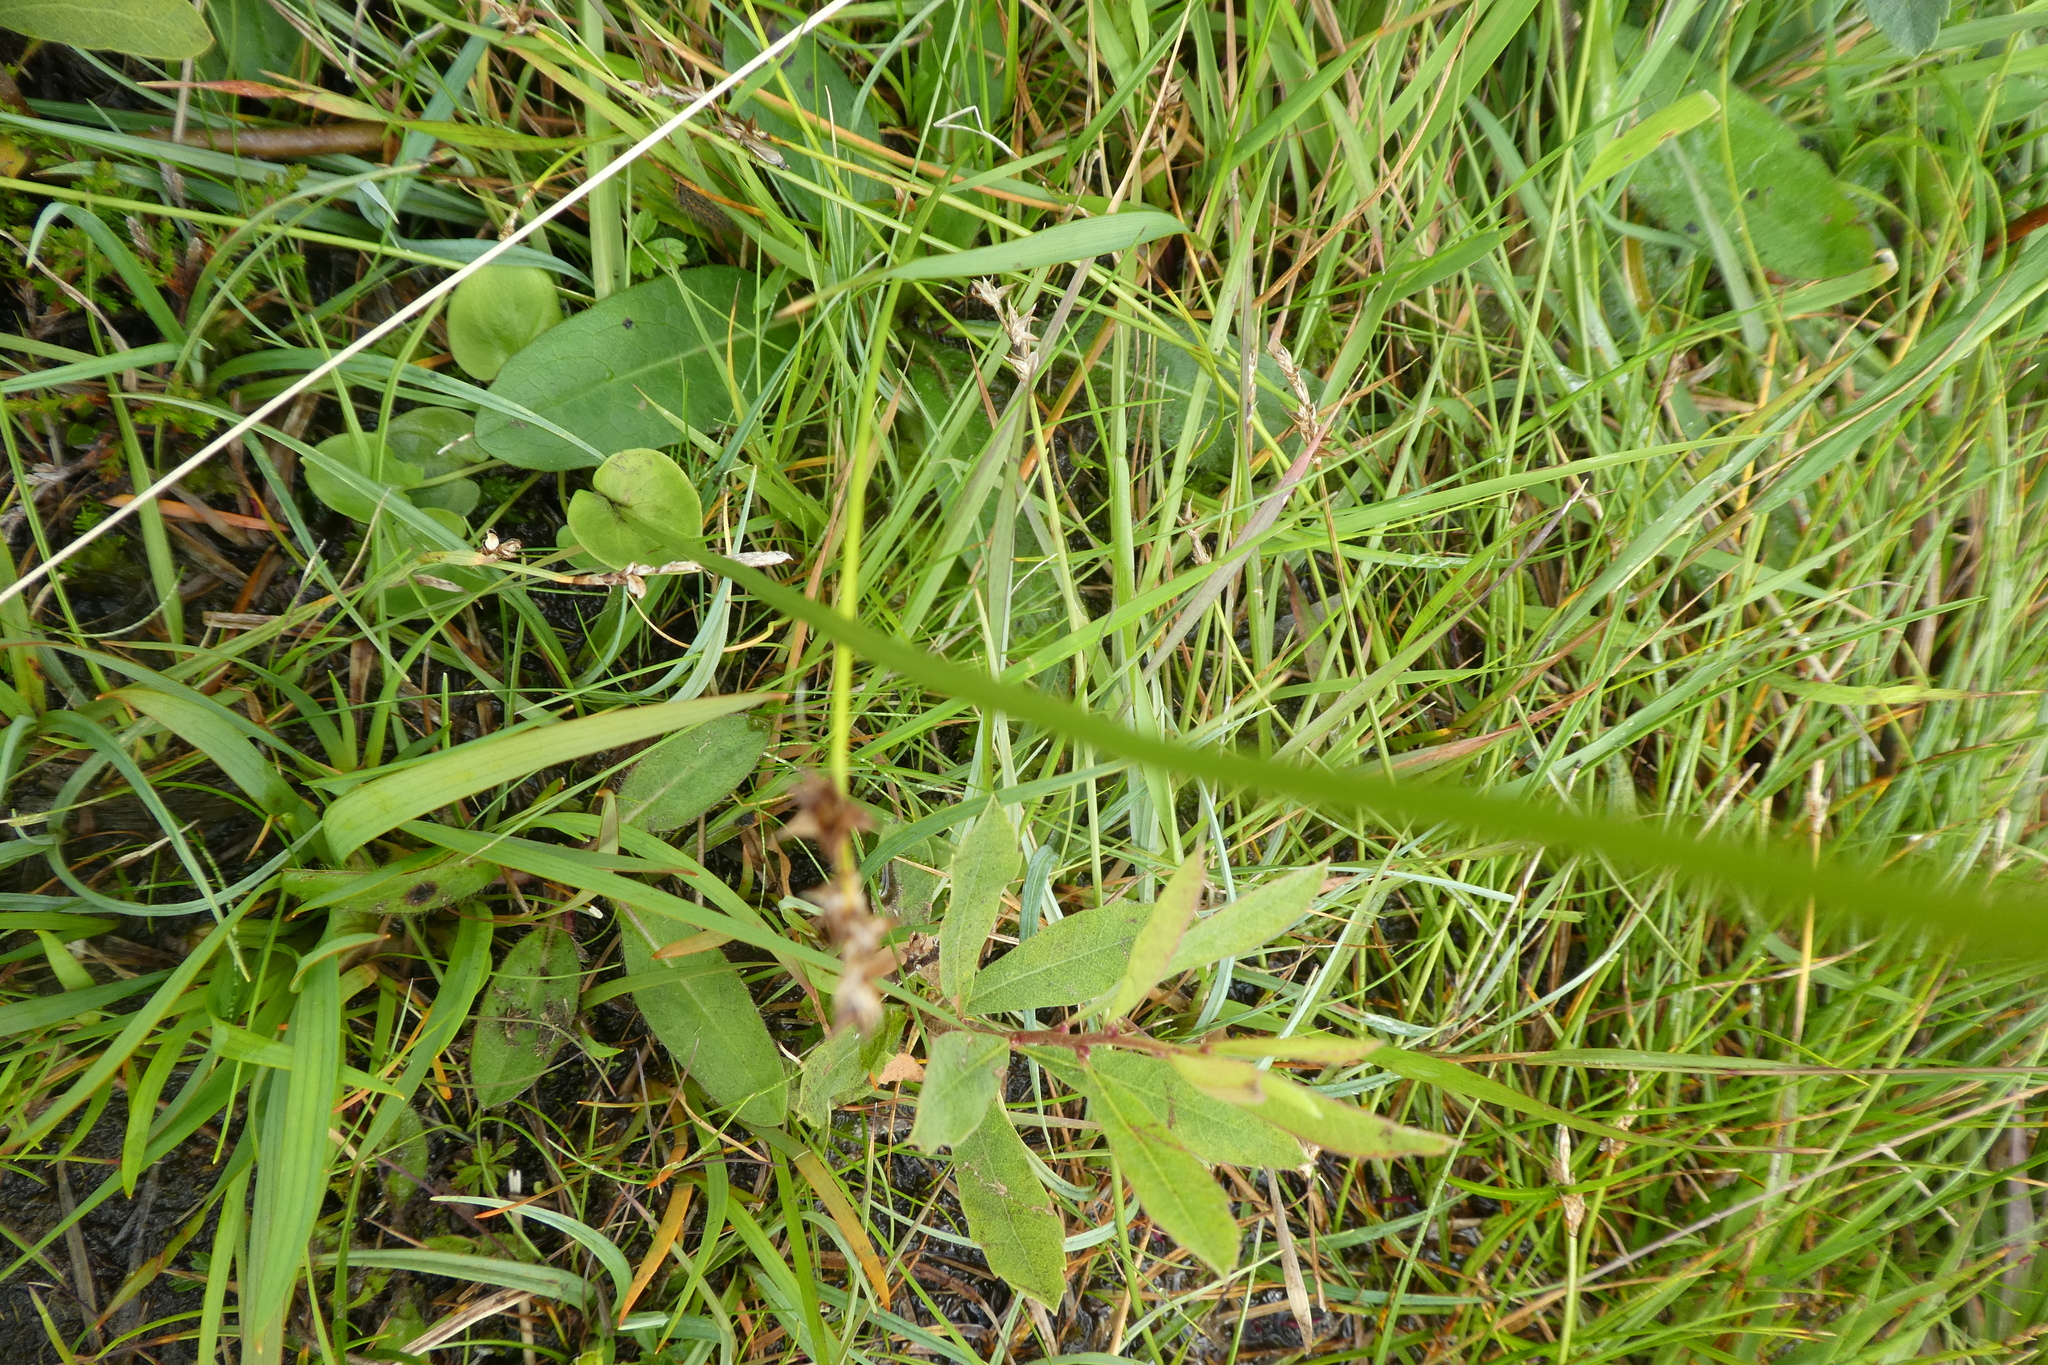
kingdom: Plantae
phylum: Tracheophyta
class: Magnoliopsida
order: Celastrales
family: Parnassiaceae
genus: Parnassia
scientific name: Parnassia palustris
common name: Grass-of-parnassus
